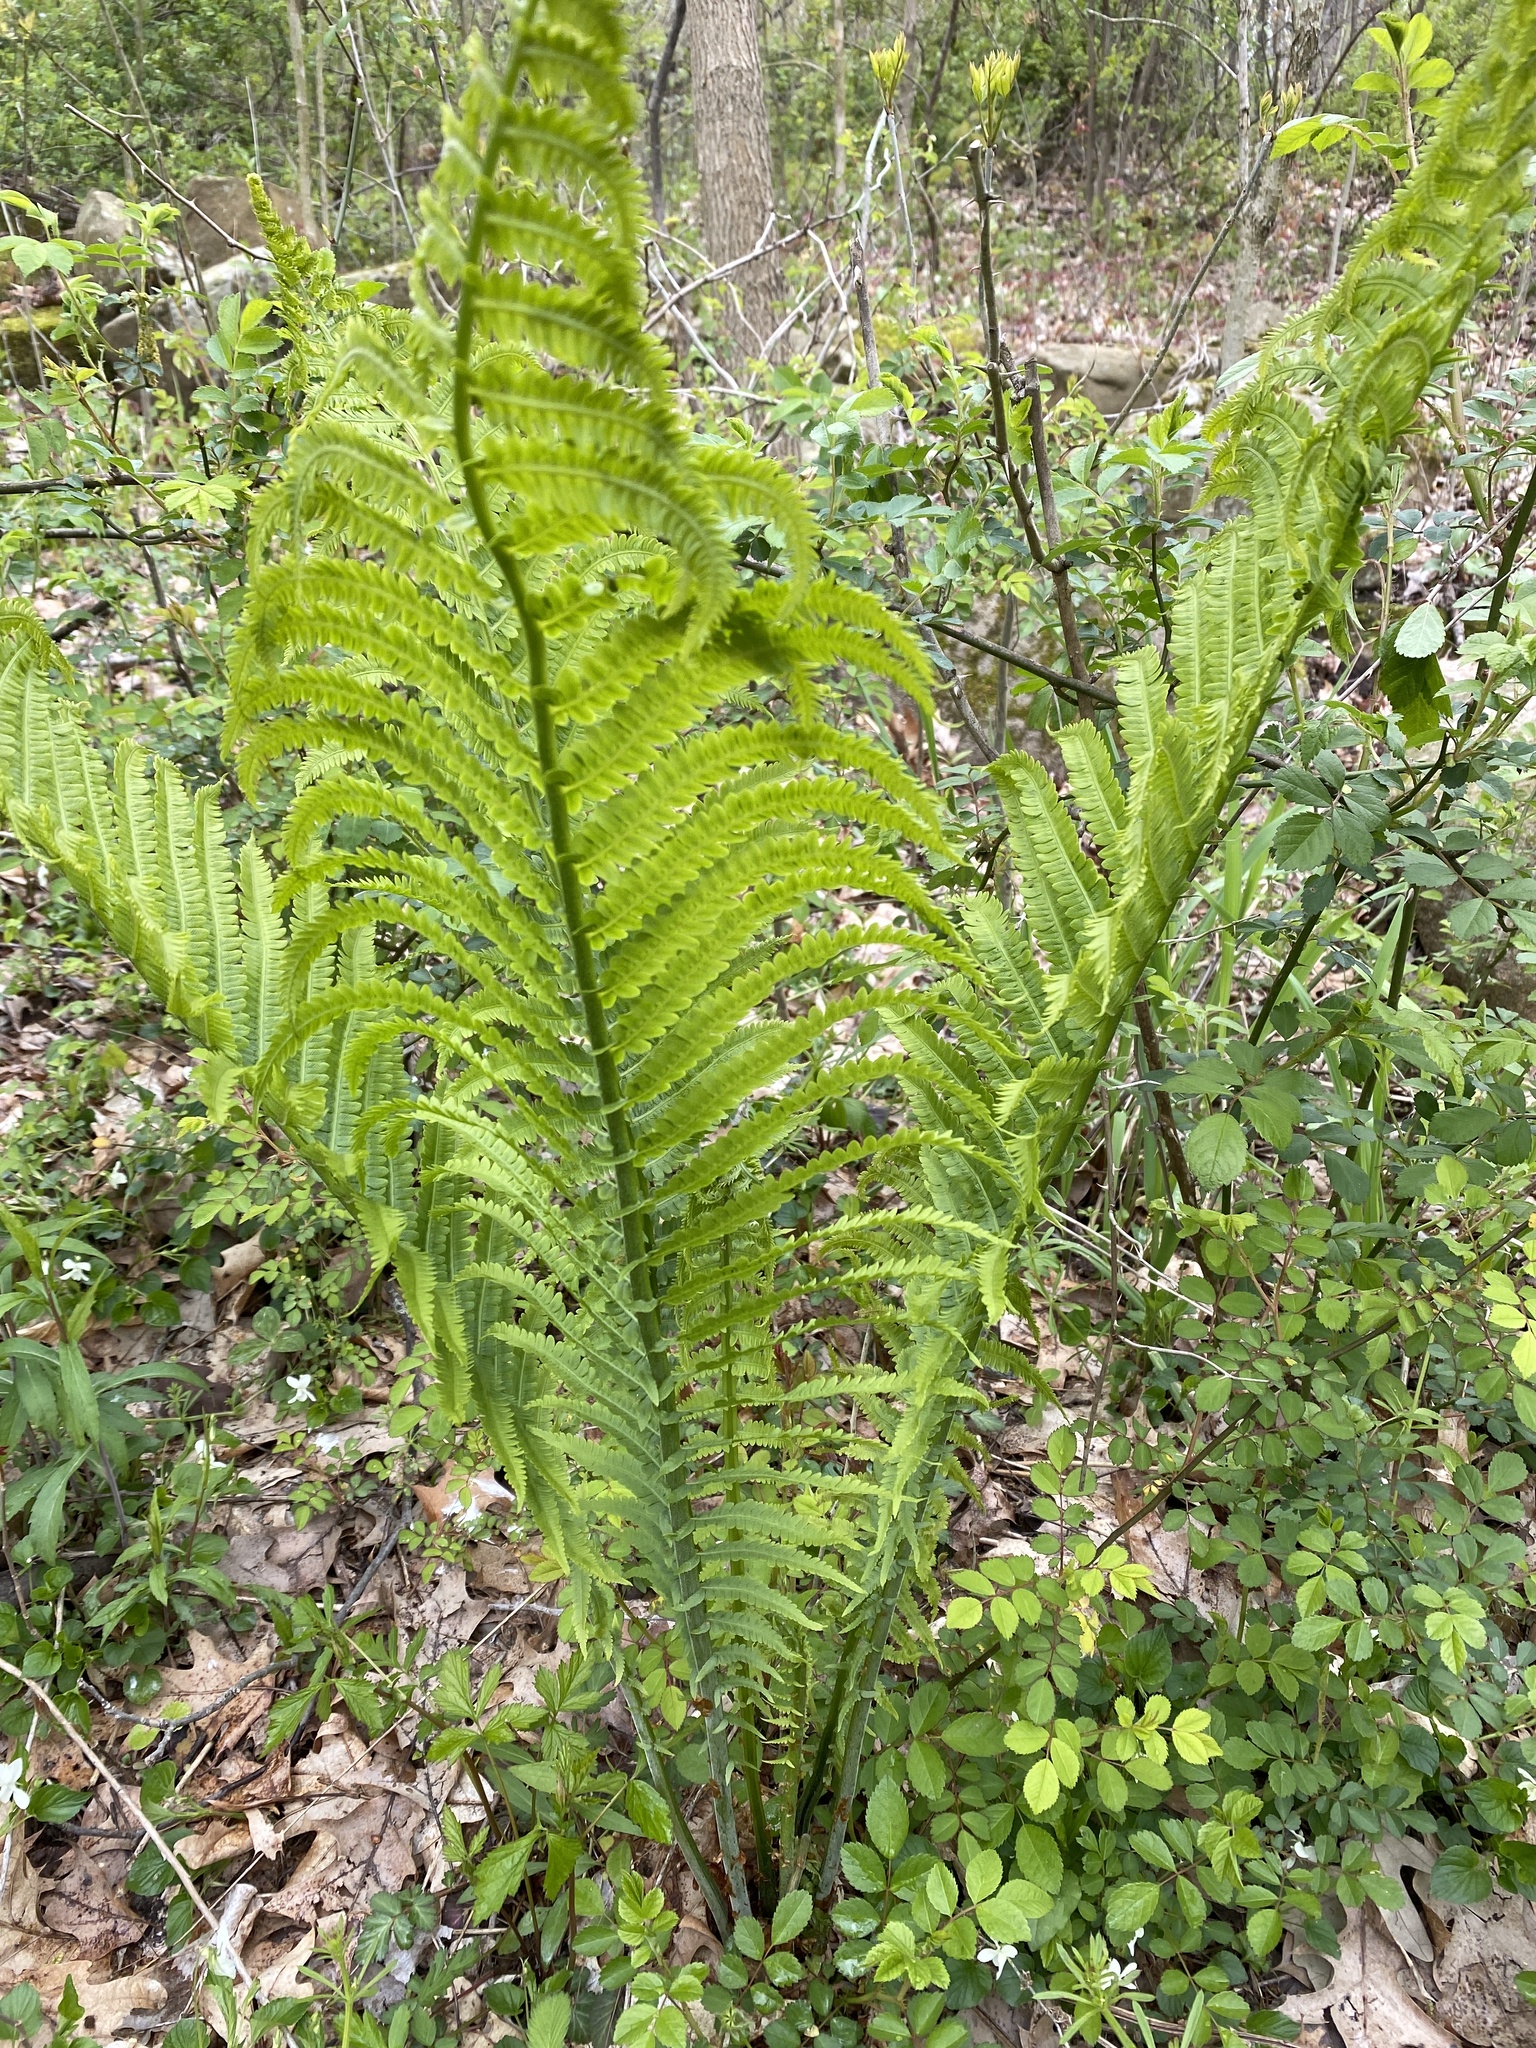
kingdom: Plantae
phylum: Tracheophyta
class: Polypodiopsida
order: Polypodiales
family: Onocleaceae
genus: Matteuccia
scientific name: Matteuccia pensylvanica
